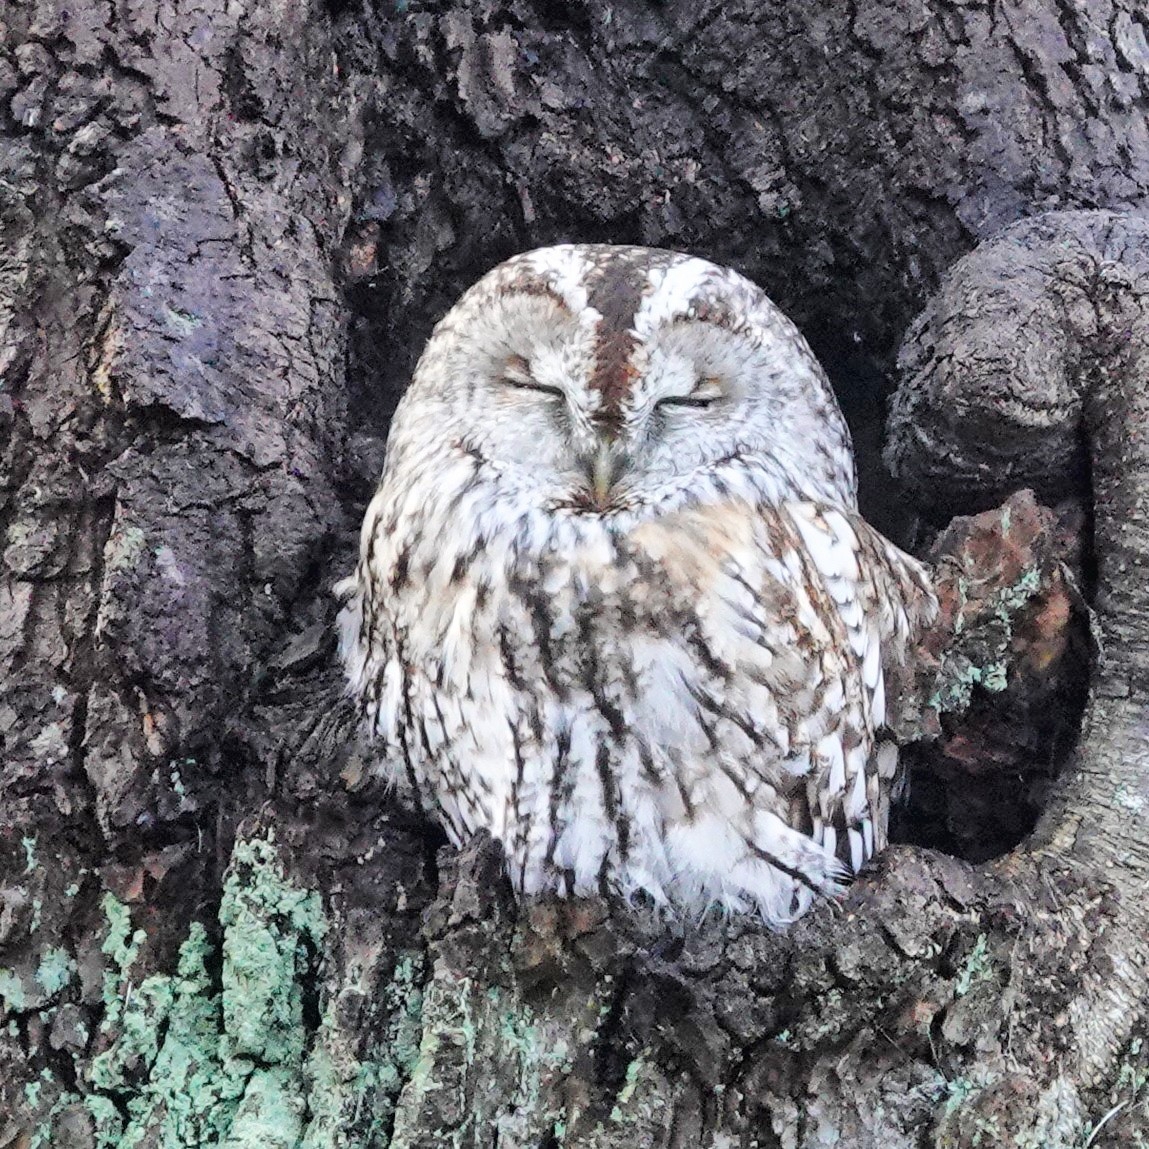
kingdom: Animalia
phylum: Chordata
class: Aves
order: Strigiformes
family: Strigidae
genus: Strix
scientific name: Strix aluco
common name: Tawny owl
